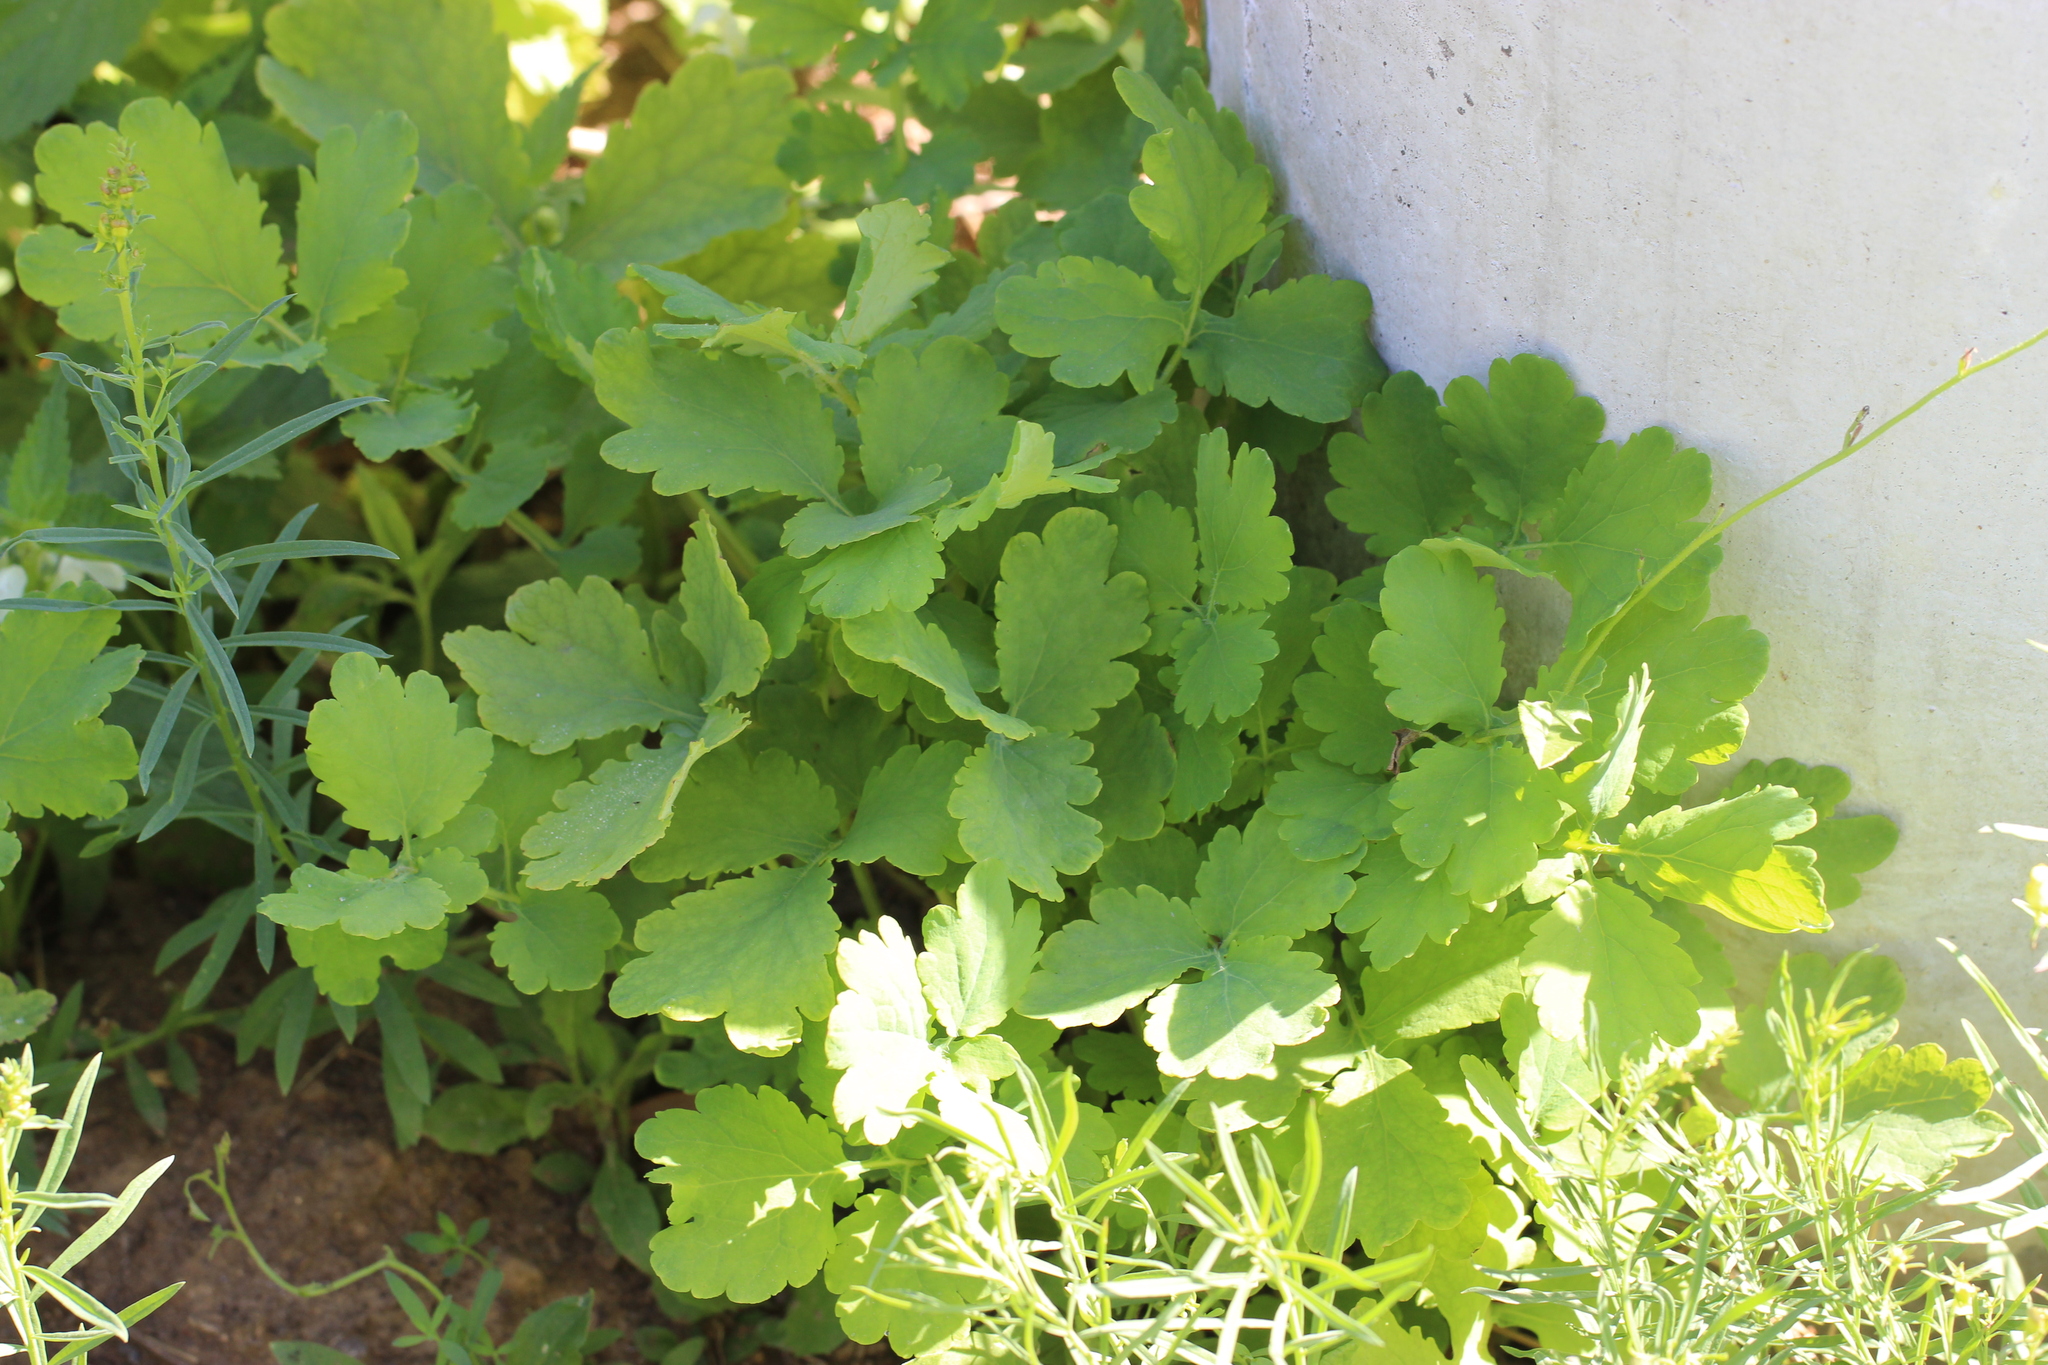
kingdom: Plantae
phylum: Tracheophyta
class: Magnoliopsida
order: Ranunculales
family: Papaveraceae
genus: Chelidonium
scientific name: Chelidonium majus
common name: Greater celandine
